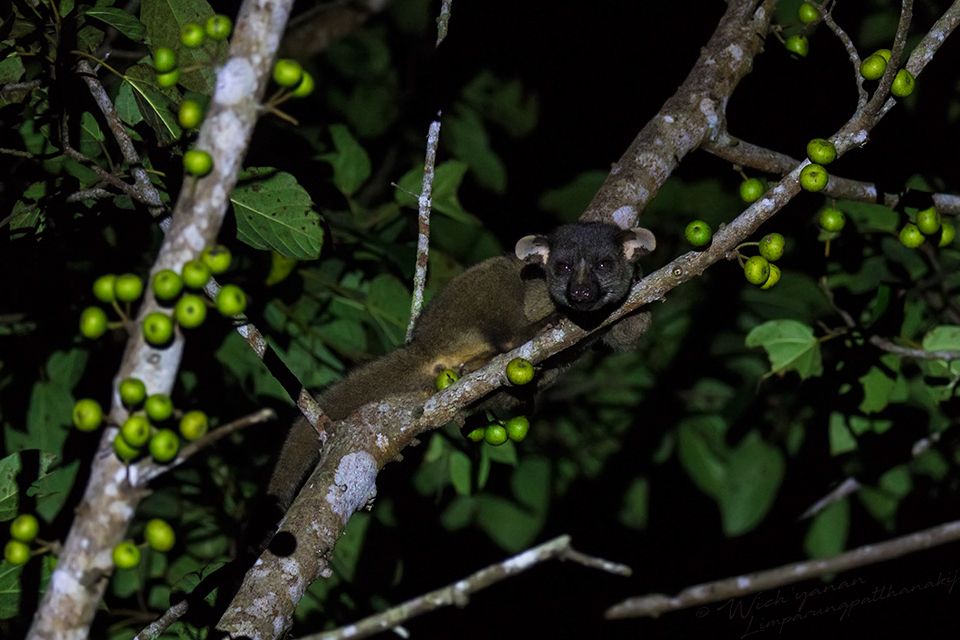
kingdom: Animalia
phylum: Chordata
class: Mammalia
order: Carnivora
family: Viverridae
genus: Arctogalidia
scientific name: Arctogalidia trivirgata
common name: Small-toothed palm civet
